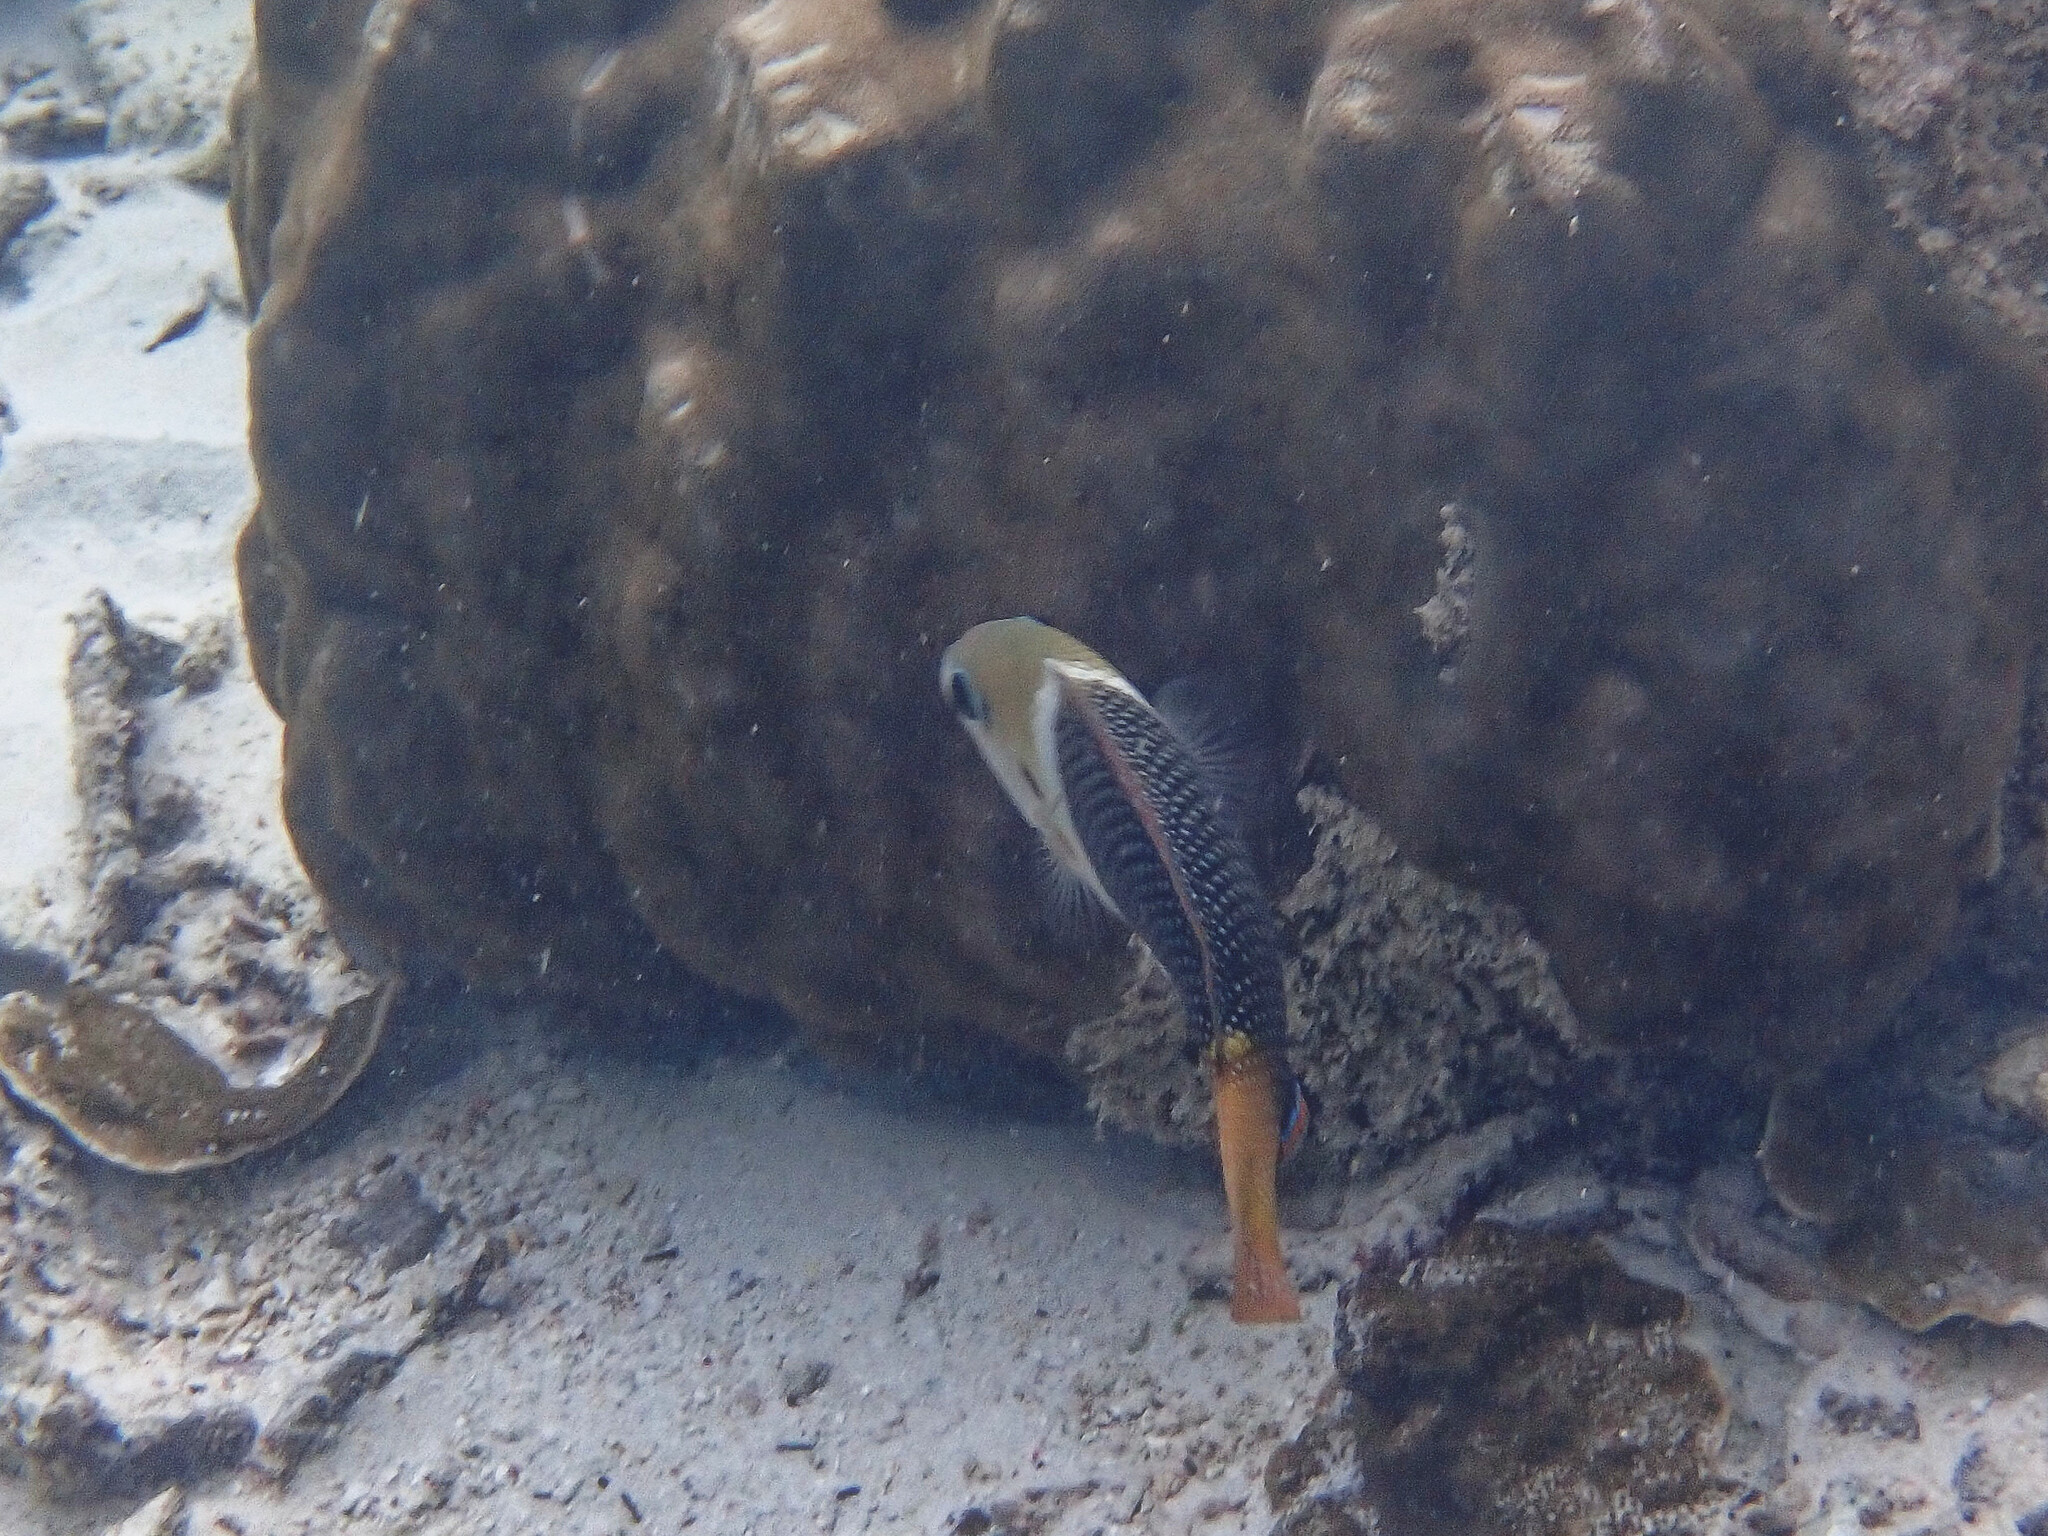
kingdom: Animalia
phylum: Chordata
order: Perciformes
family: Labridae
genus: Hemigymnus
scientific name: Hemigymnus melapterus
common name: Blackeye thicklip
